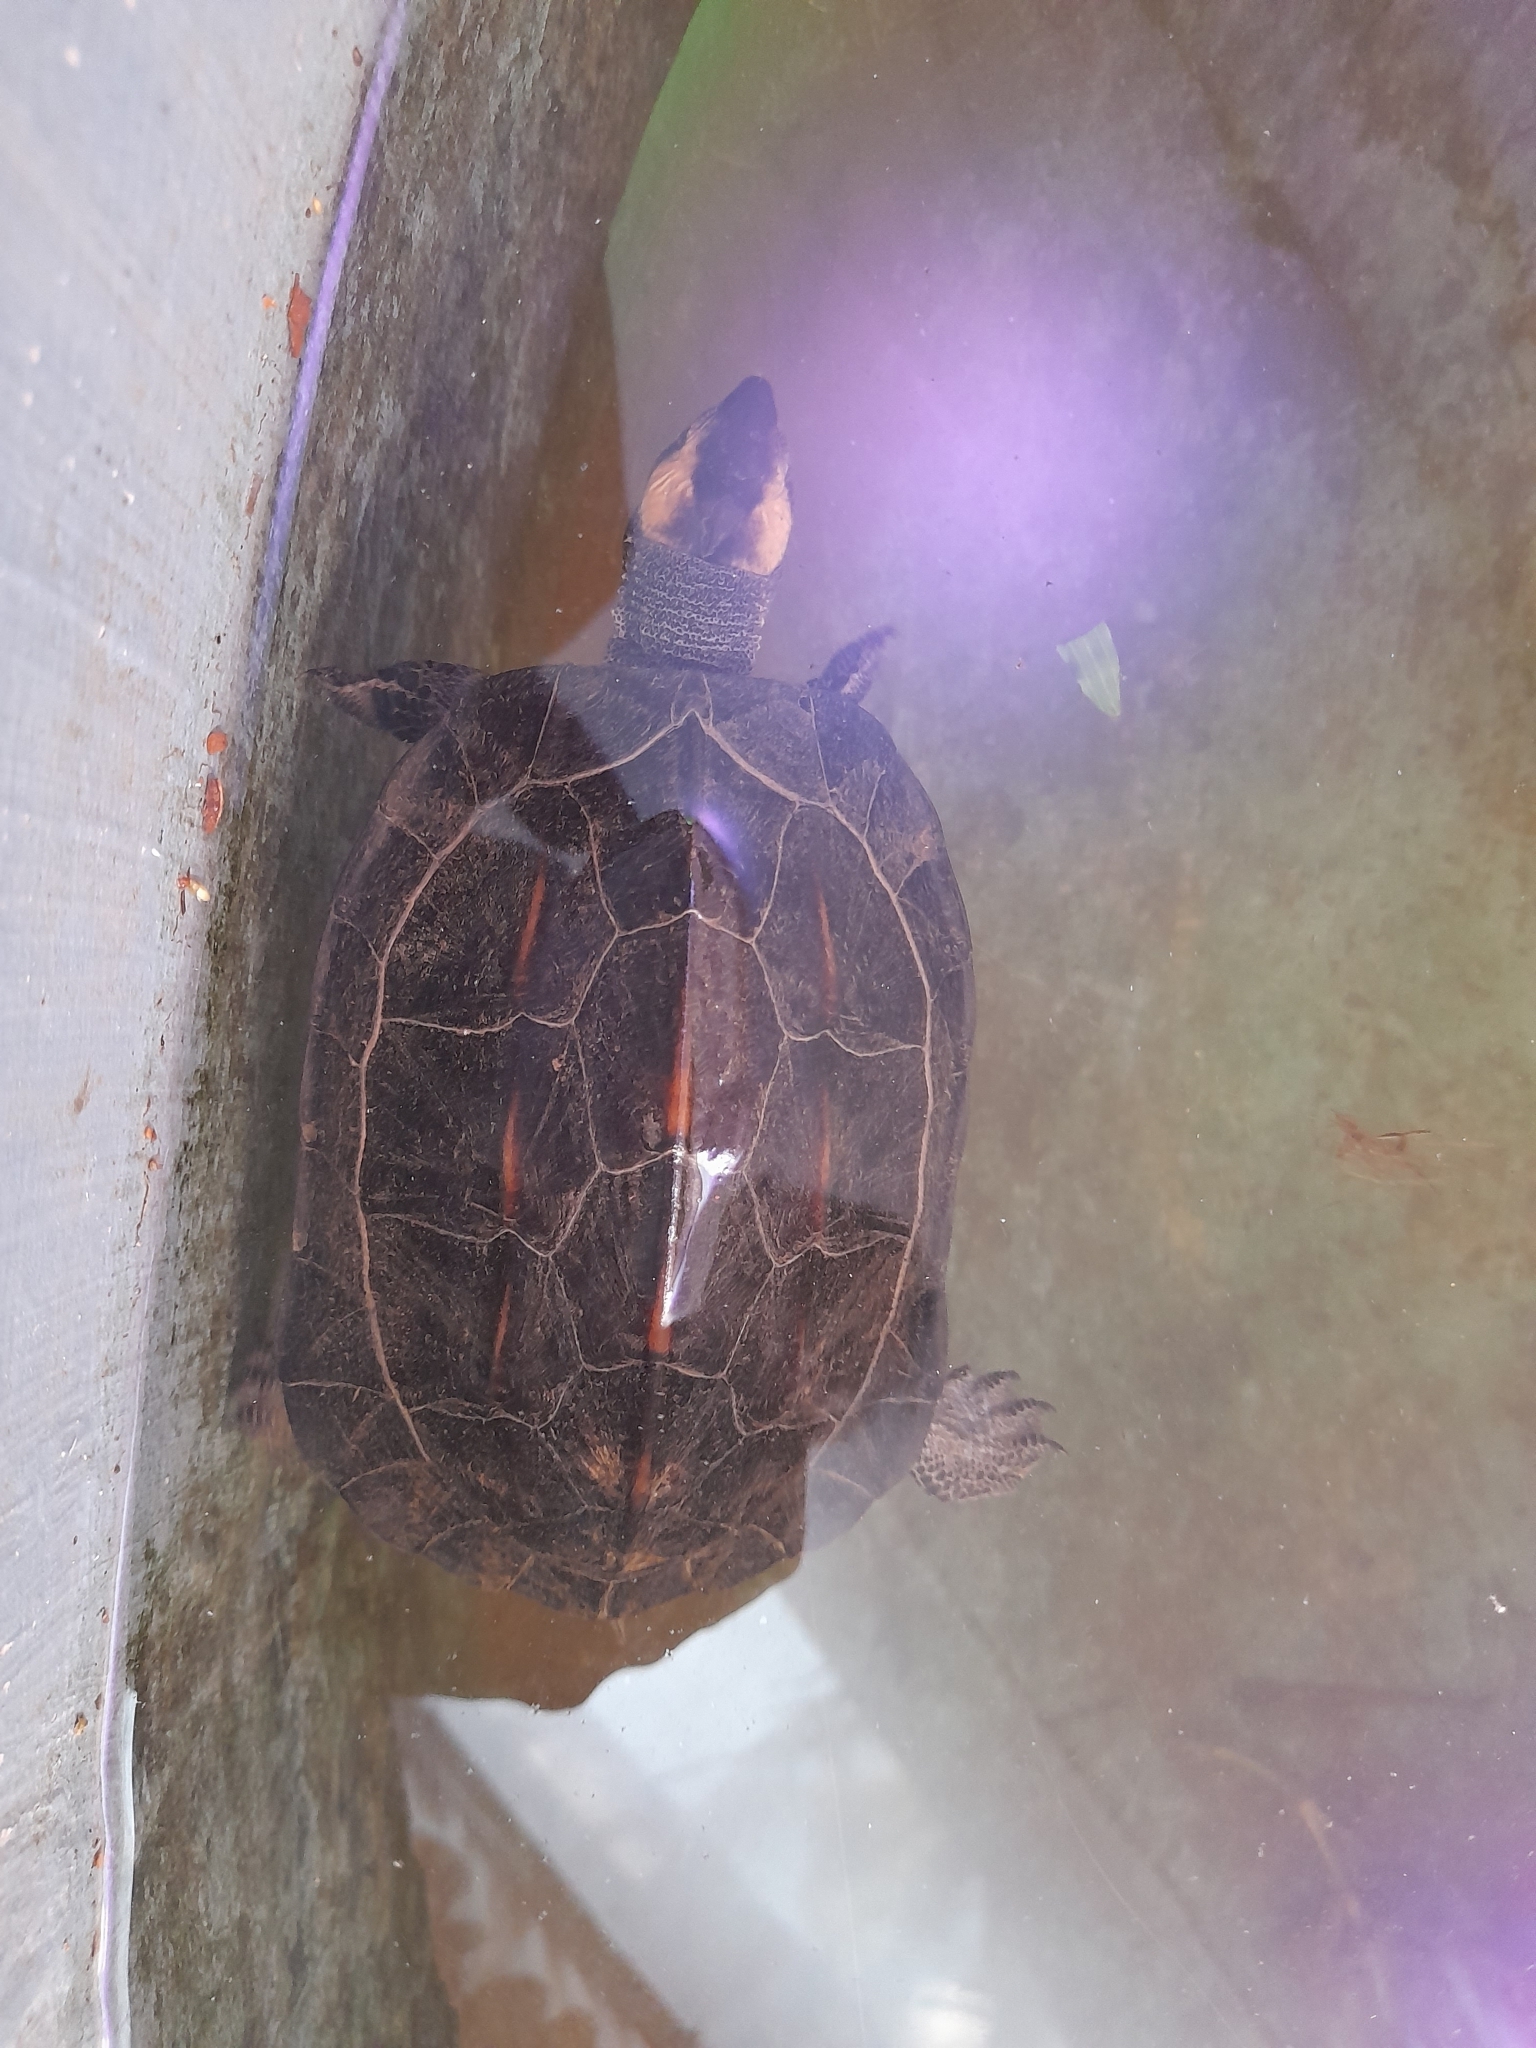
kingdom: Animalia
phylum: Chordata
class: Testudines
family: Geoemydidae
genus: Melanochelys
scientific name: Melanochelys trijuga
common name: Indian black turtle
